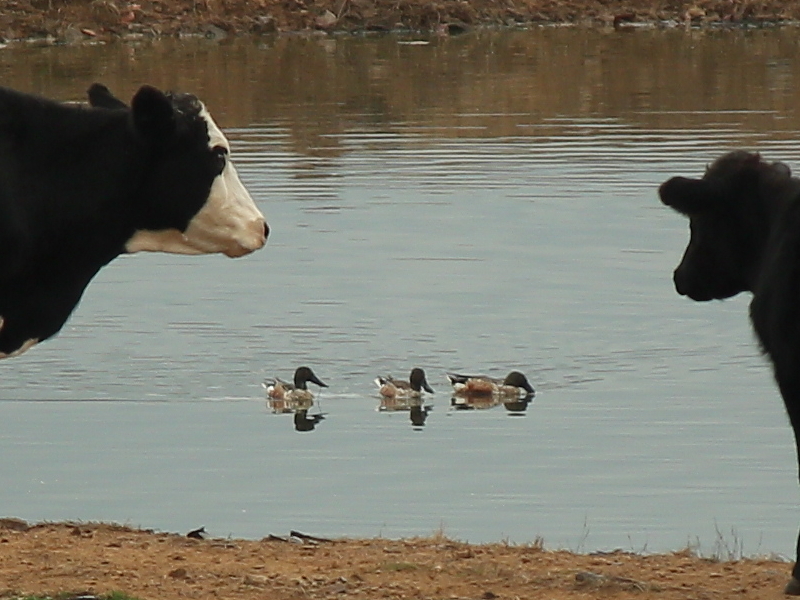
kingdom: Animalia
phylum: Chordata
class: Aves
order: Anseriformes
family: Anatidae
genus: Spatula
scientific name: Spatula clypeata
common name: Northern shoveler
